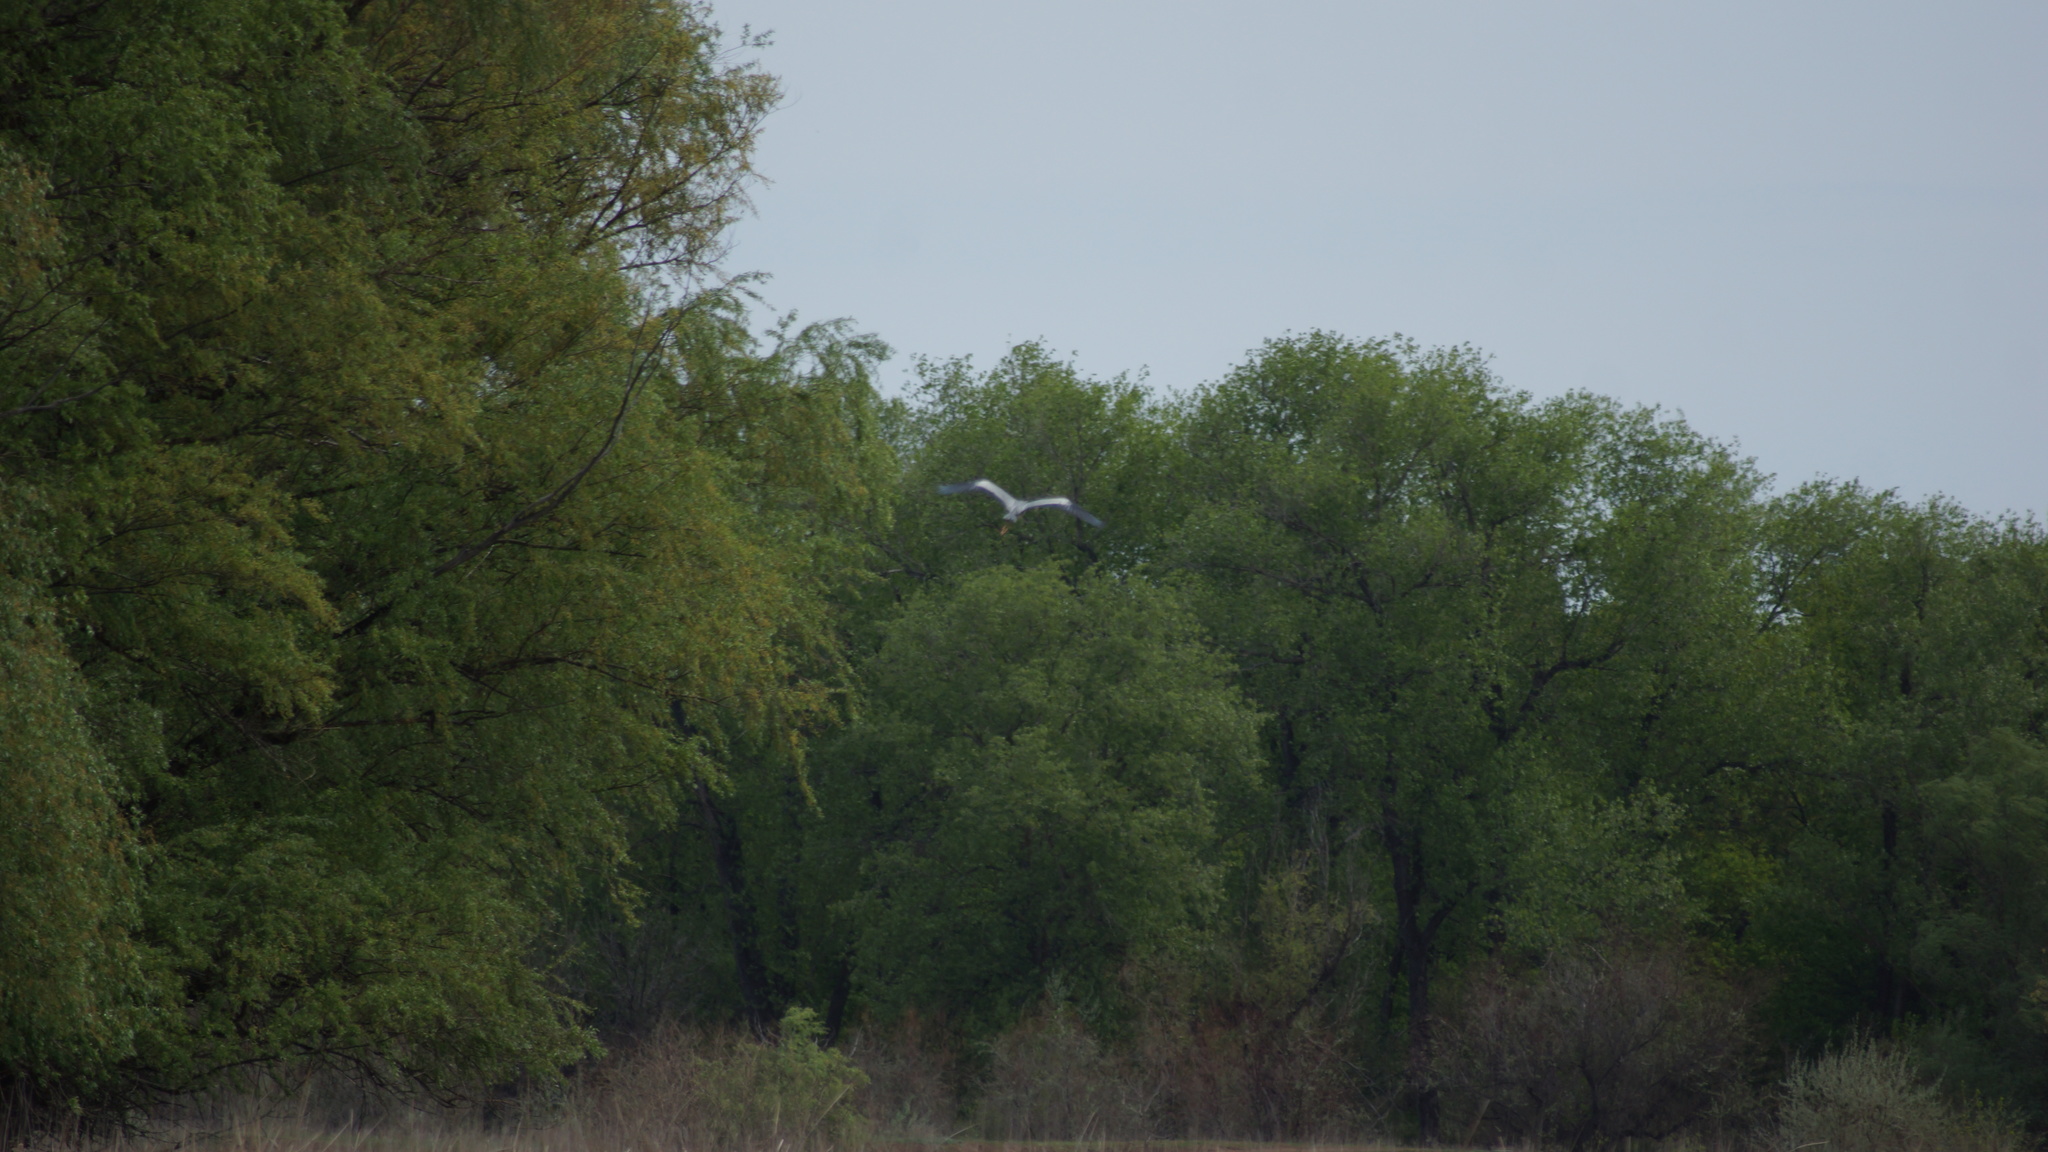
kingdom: Animalia
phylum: Chordata
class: Aves
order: Pelecaniformes
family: Ardeidae
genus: Ardea
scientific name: Ardea cinerea
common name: Grey heron
